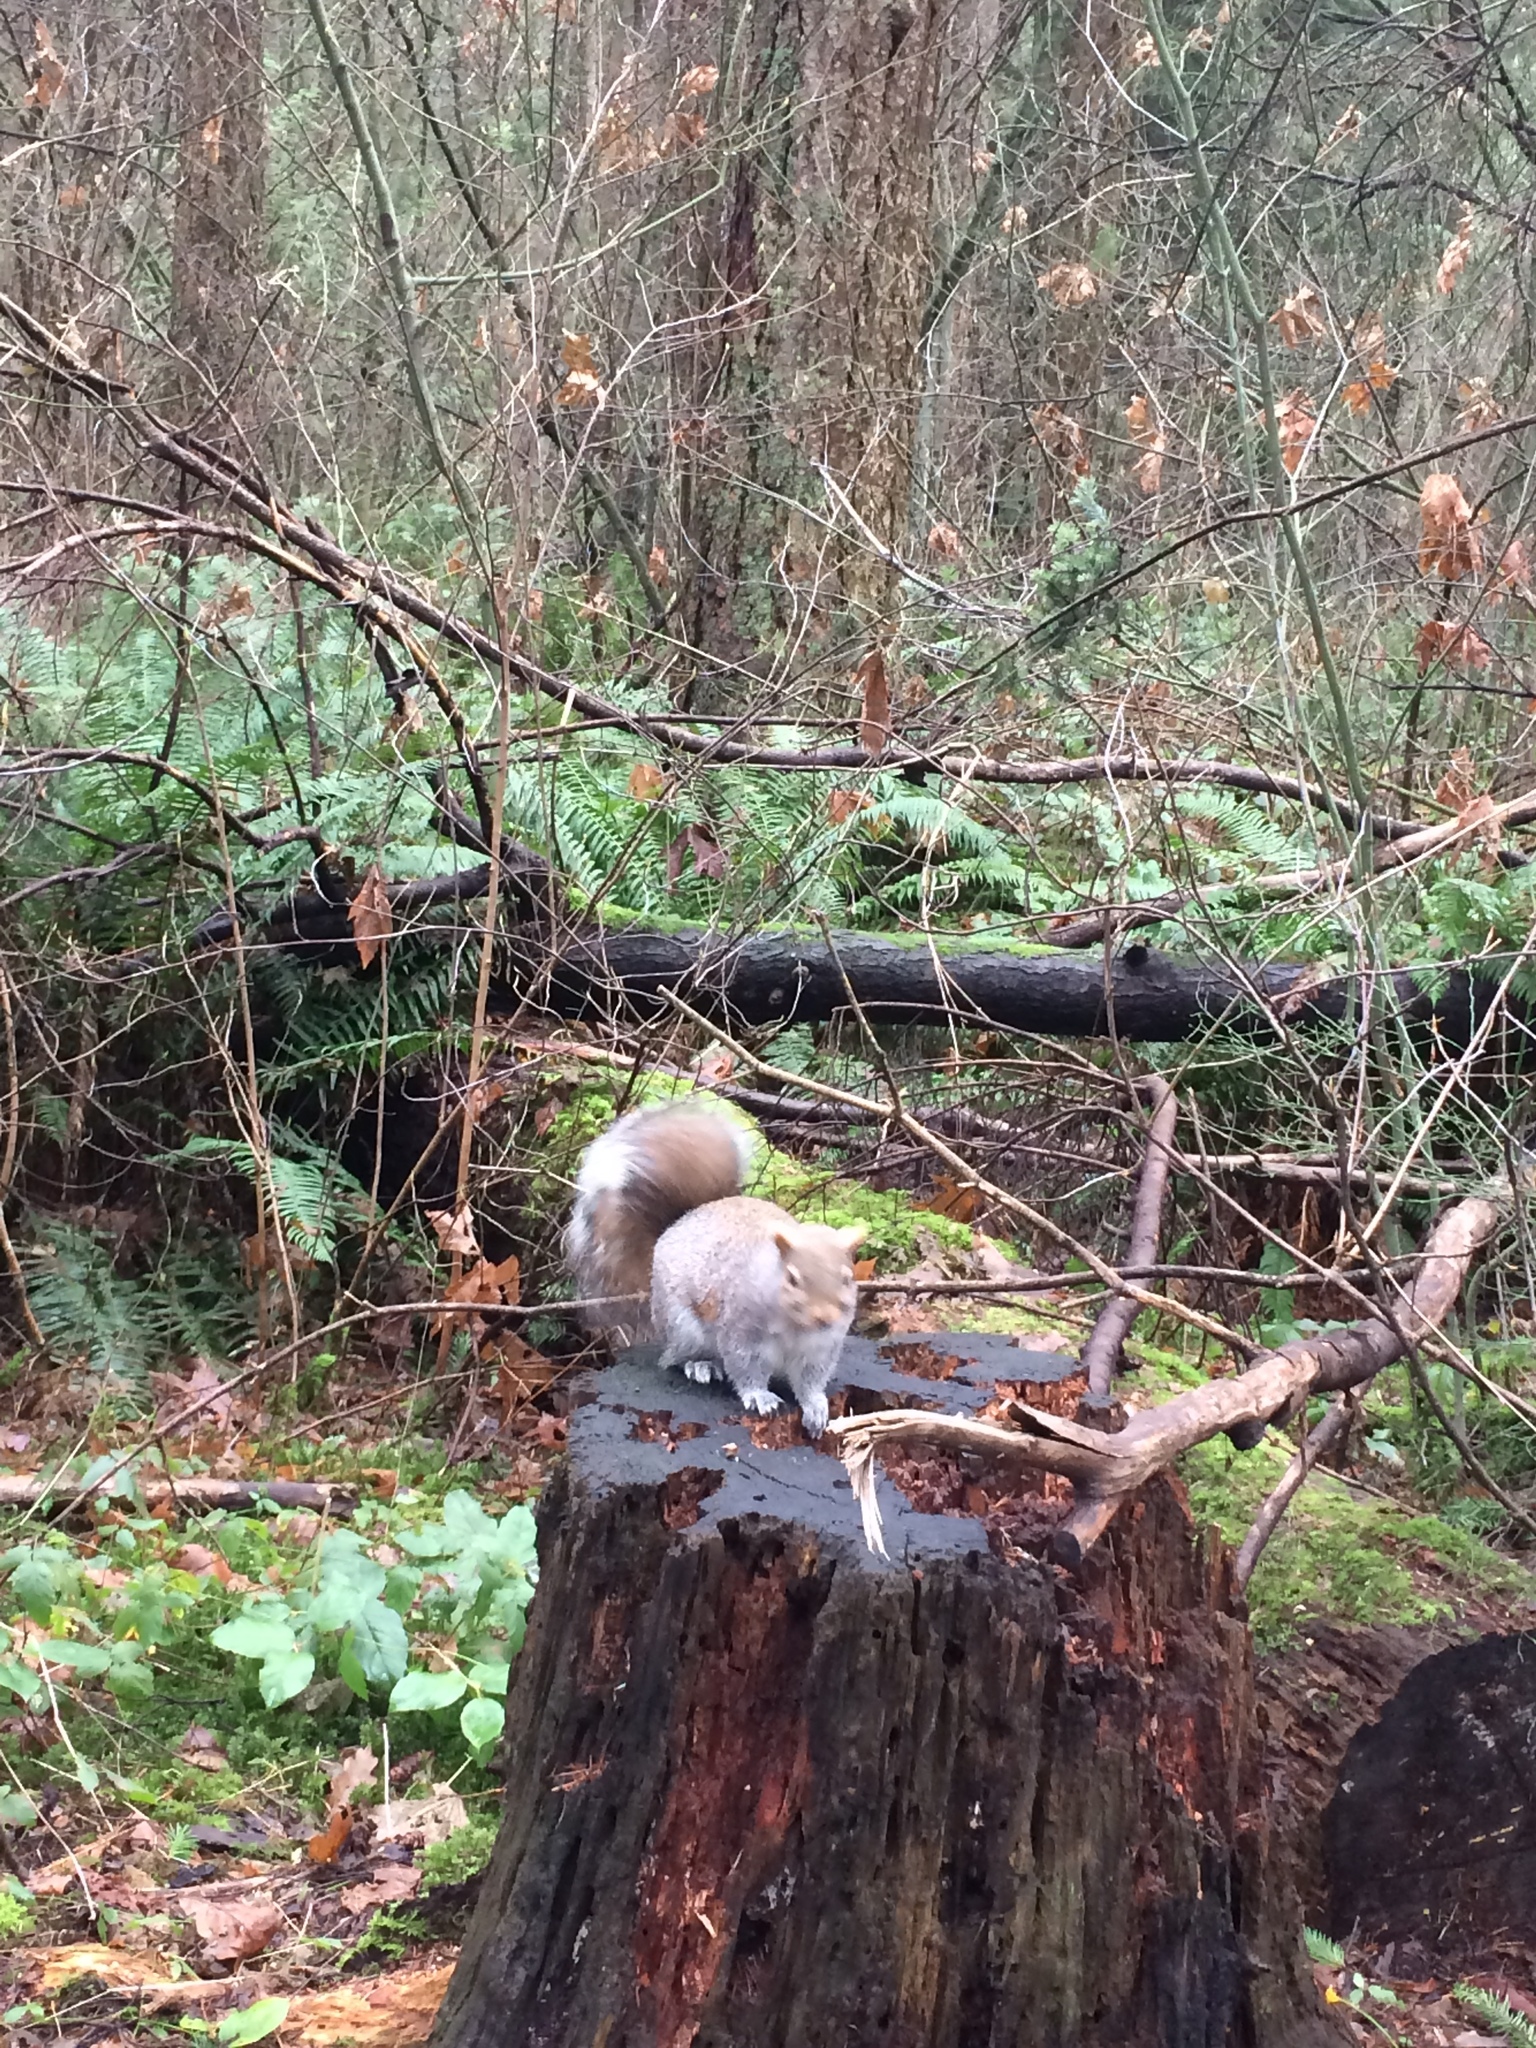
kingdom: Animalia
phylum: Chordata
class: Mammalia
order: Rodentia
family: Sciuridae
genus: Sciurus
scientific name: Sciurus carolinensis
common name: Eastern gray squirrel
